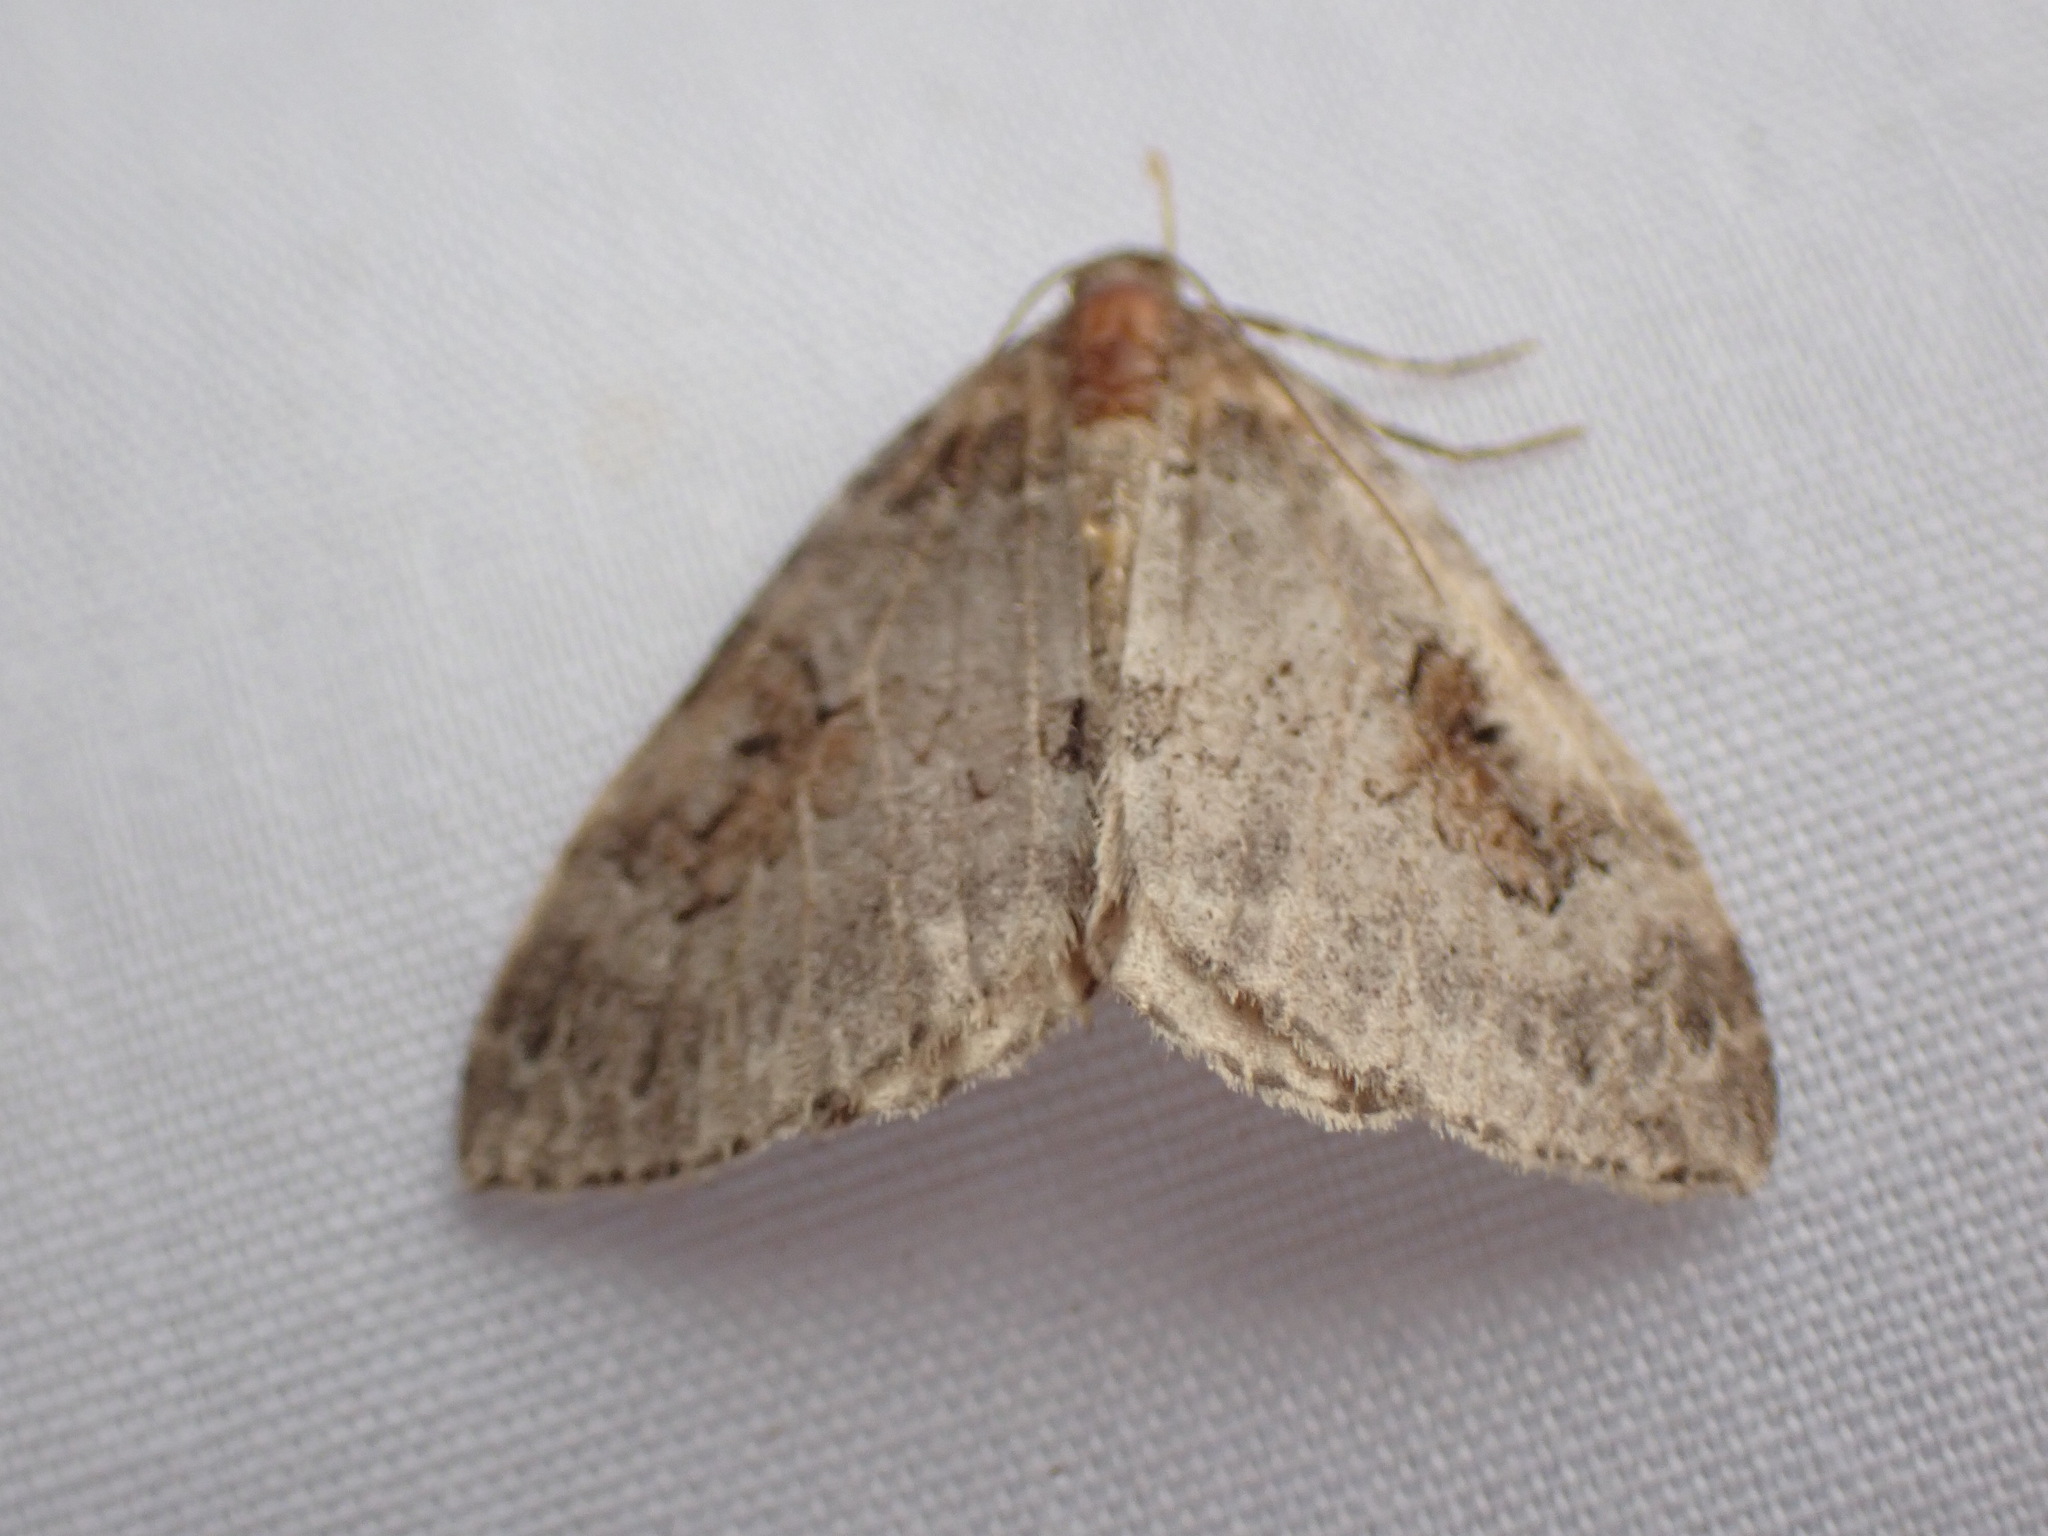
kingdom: Animalia
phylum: Arthropoda
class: Insecta
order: Lepidoptera
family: Geometridae
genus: Plemyria
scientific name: Plemyria georgii
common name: George's carpet moth
